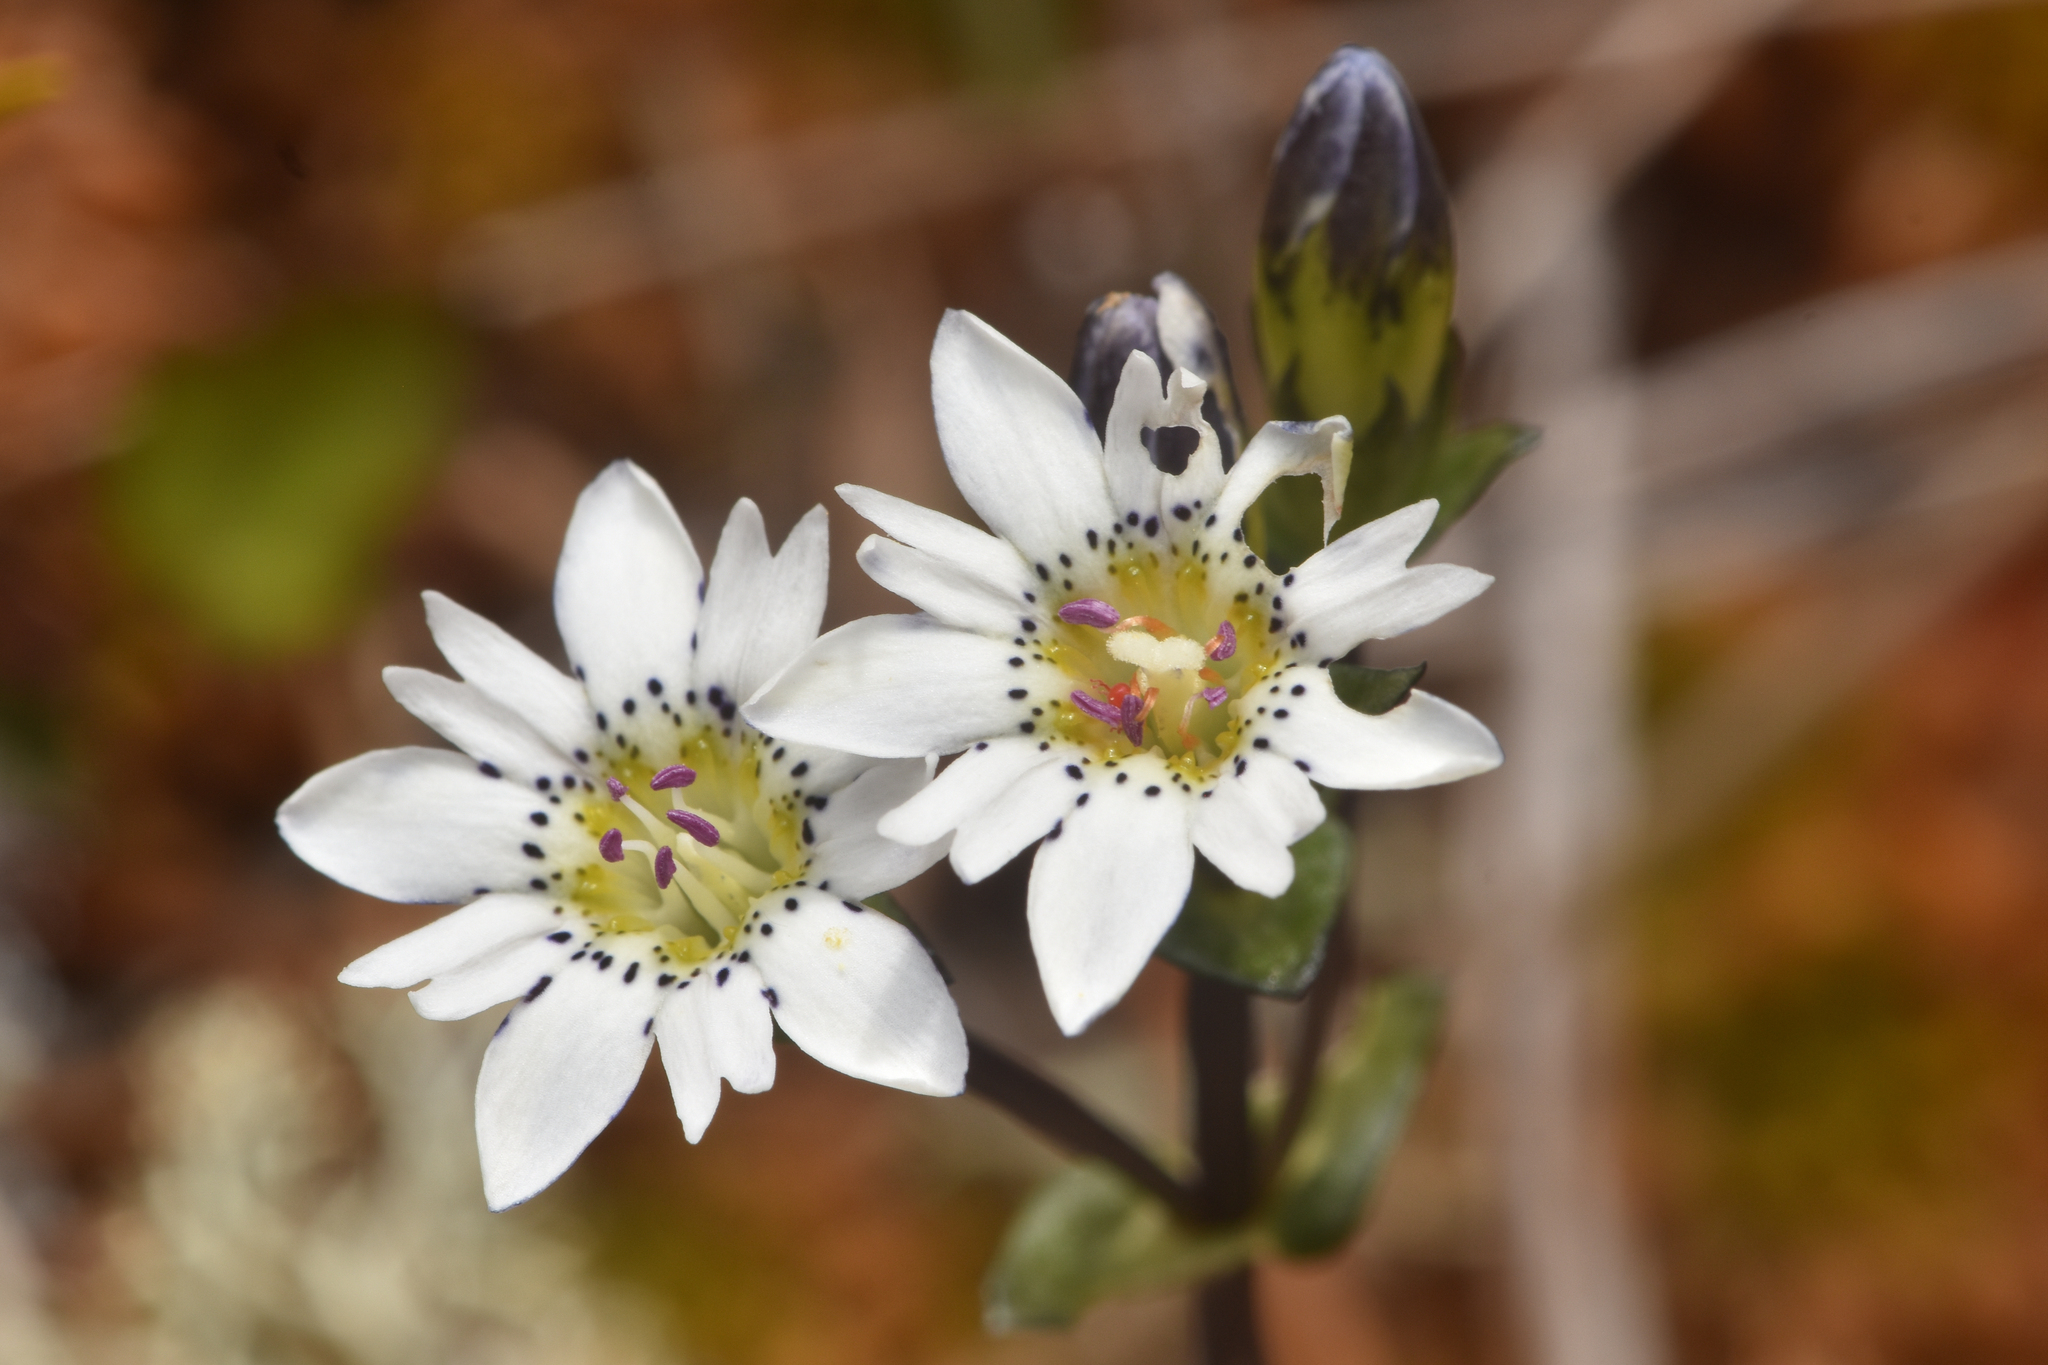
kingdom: Plantae
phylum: Tracheophyta
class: Magnoliopsida
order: Gentianales
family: Gentianaceae
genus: Gentiana
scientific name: Gentiana douglasiana
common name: Swamp gentian
